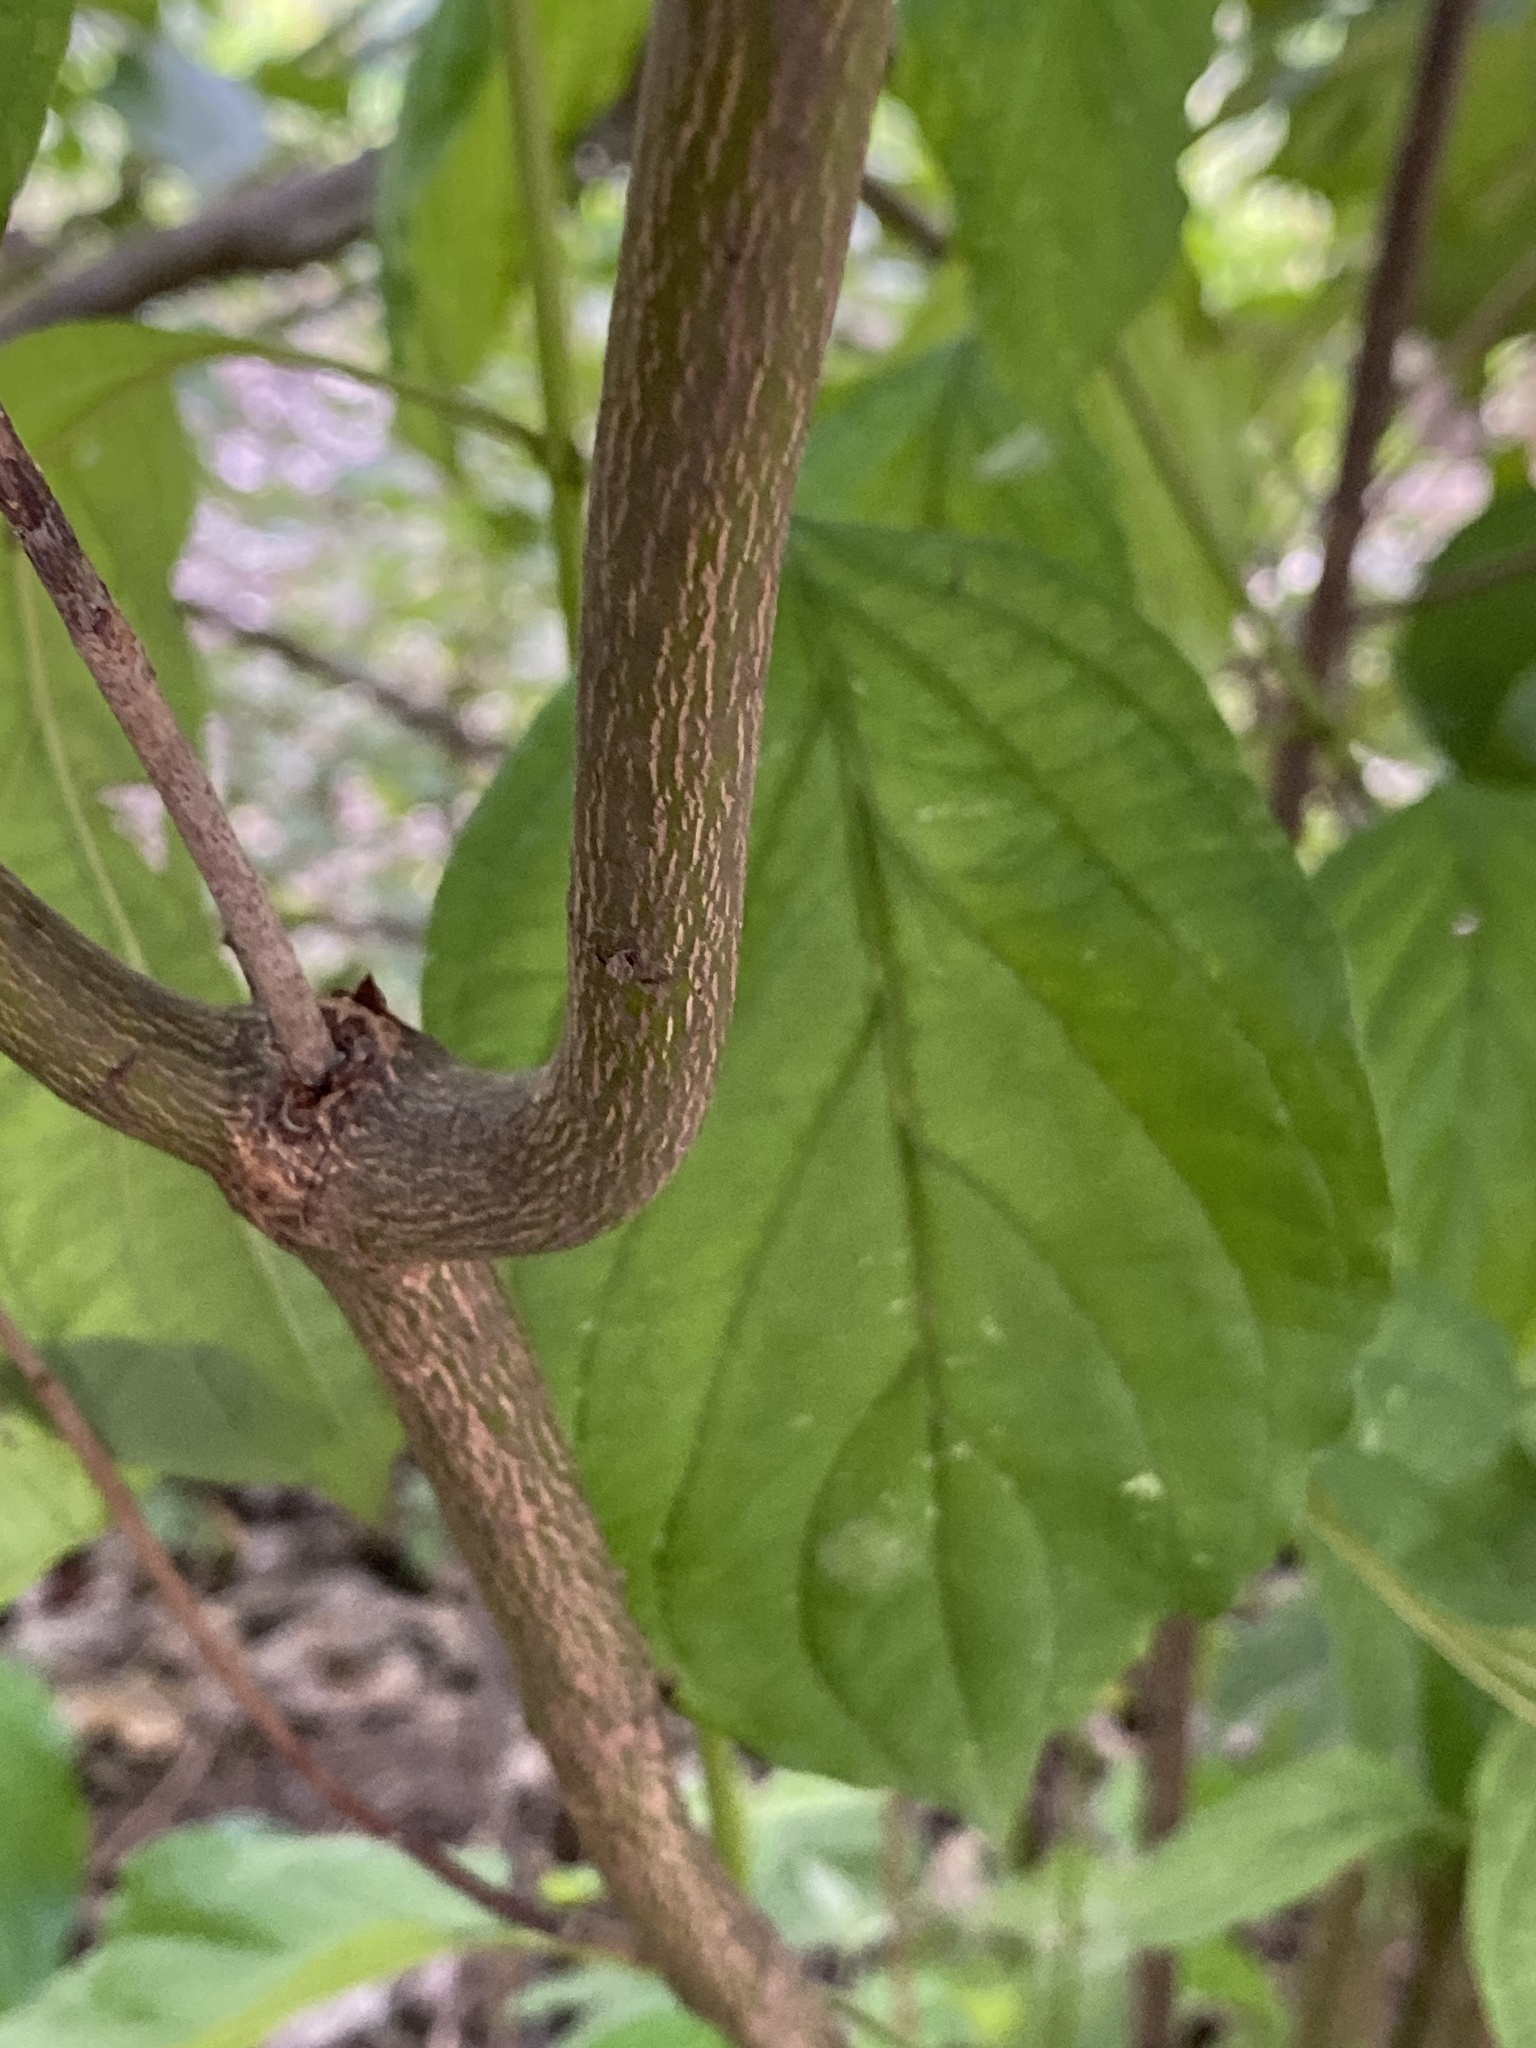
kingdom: Plantae
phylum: Tracheophyta
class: Magnoliopsida
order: Cornales
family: Cornaceae
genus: Cornus
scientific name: Cornus amomum
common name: Silky dogwood
